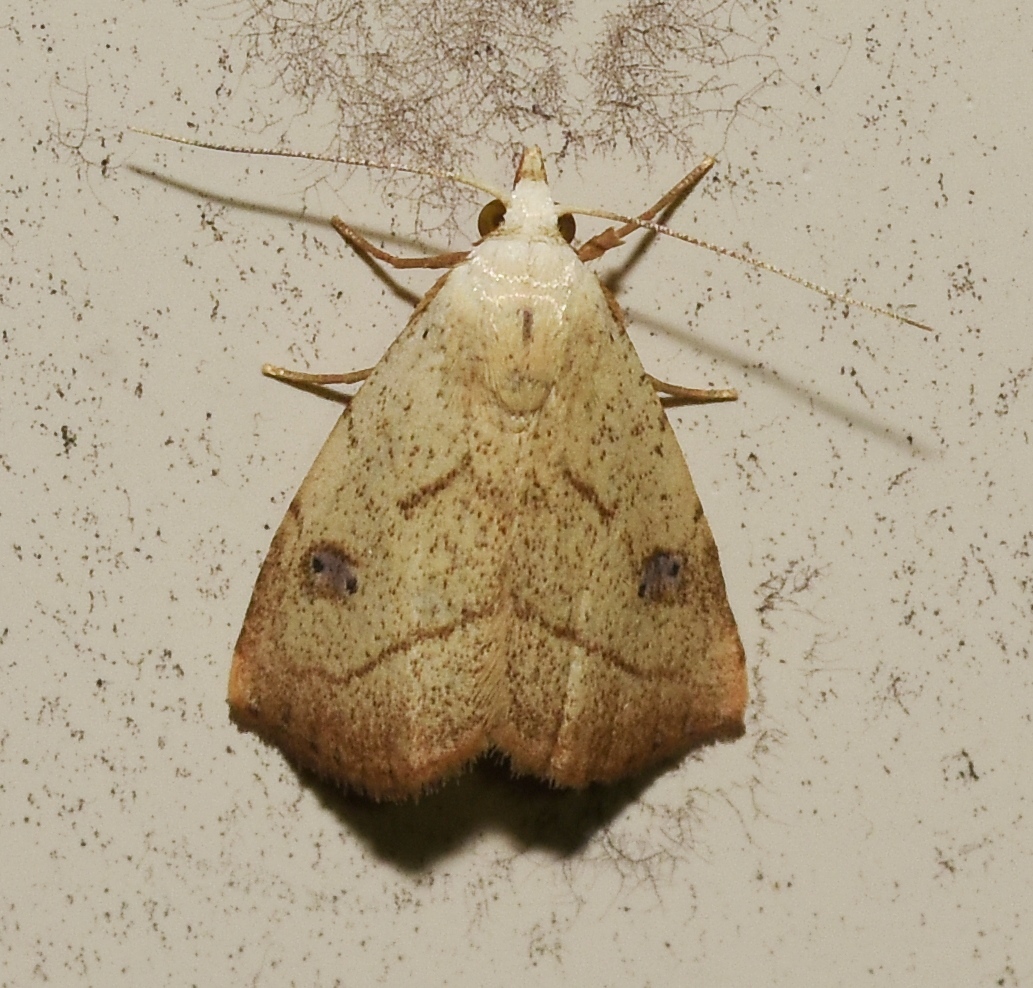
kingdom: Animalia
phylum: Arthropoda
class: Insecta
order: Lepidoptera
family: Erebidae
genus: Rivula
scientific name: Rivula propinqualis
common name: Spotted grass moth
